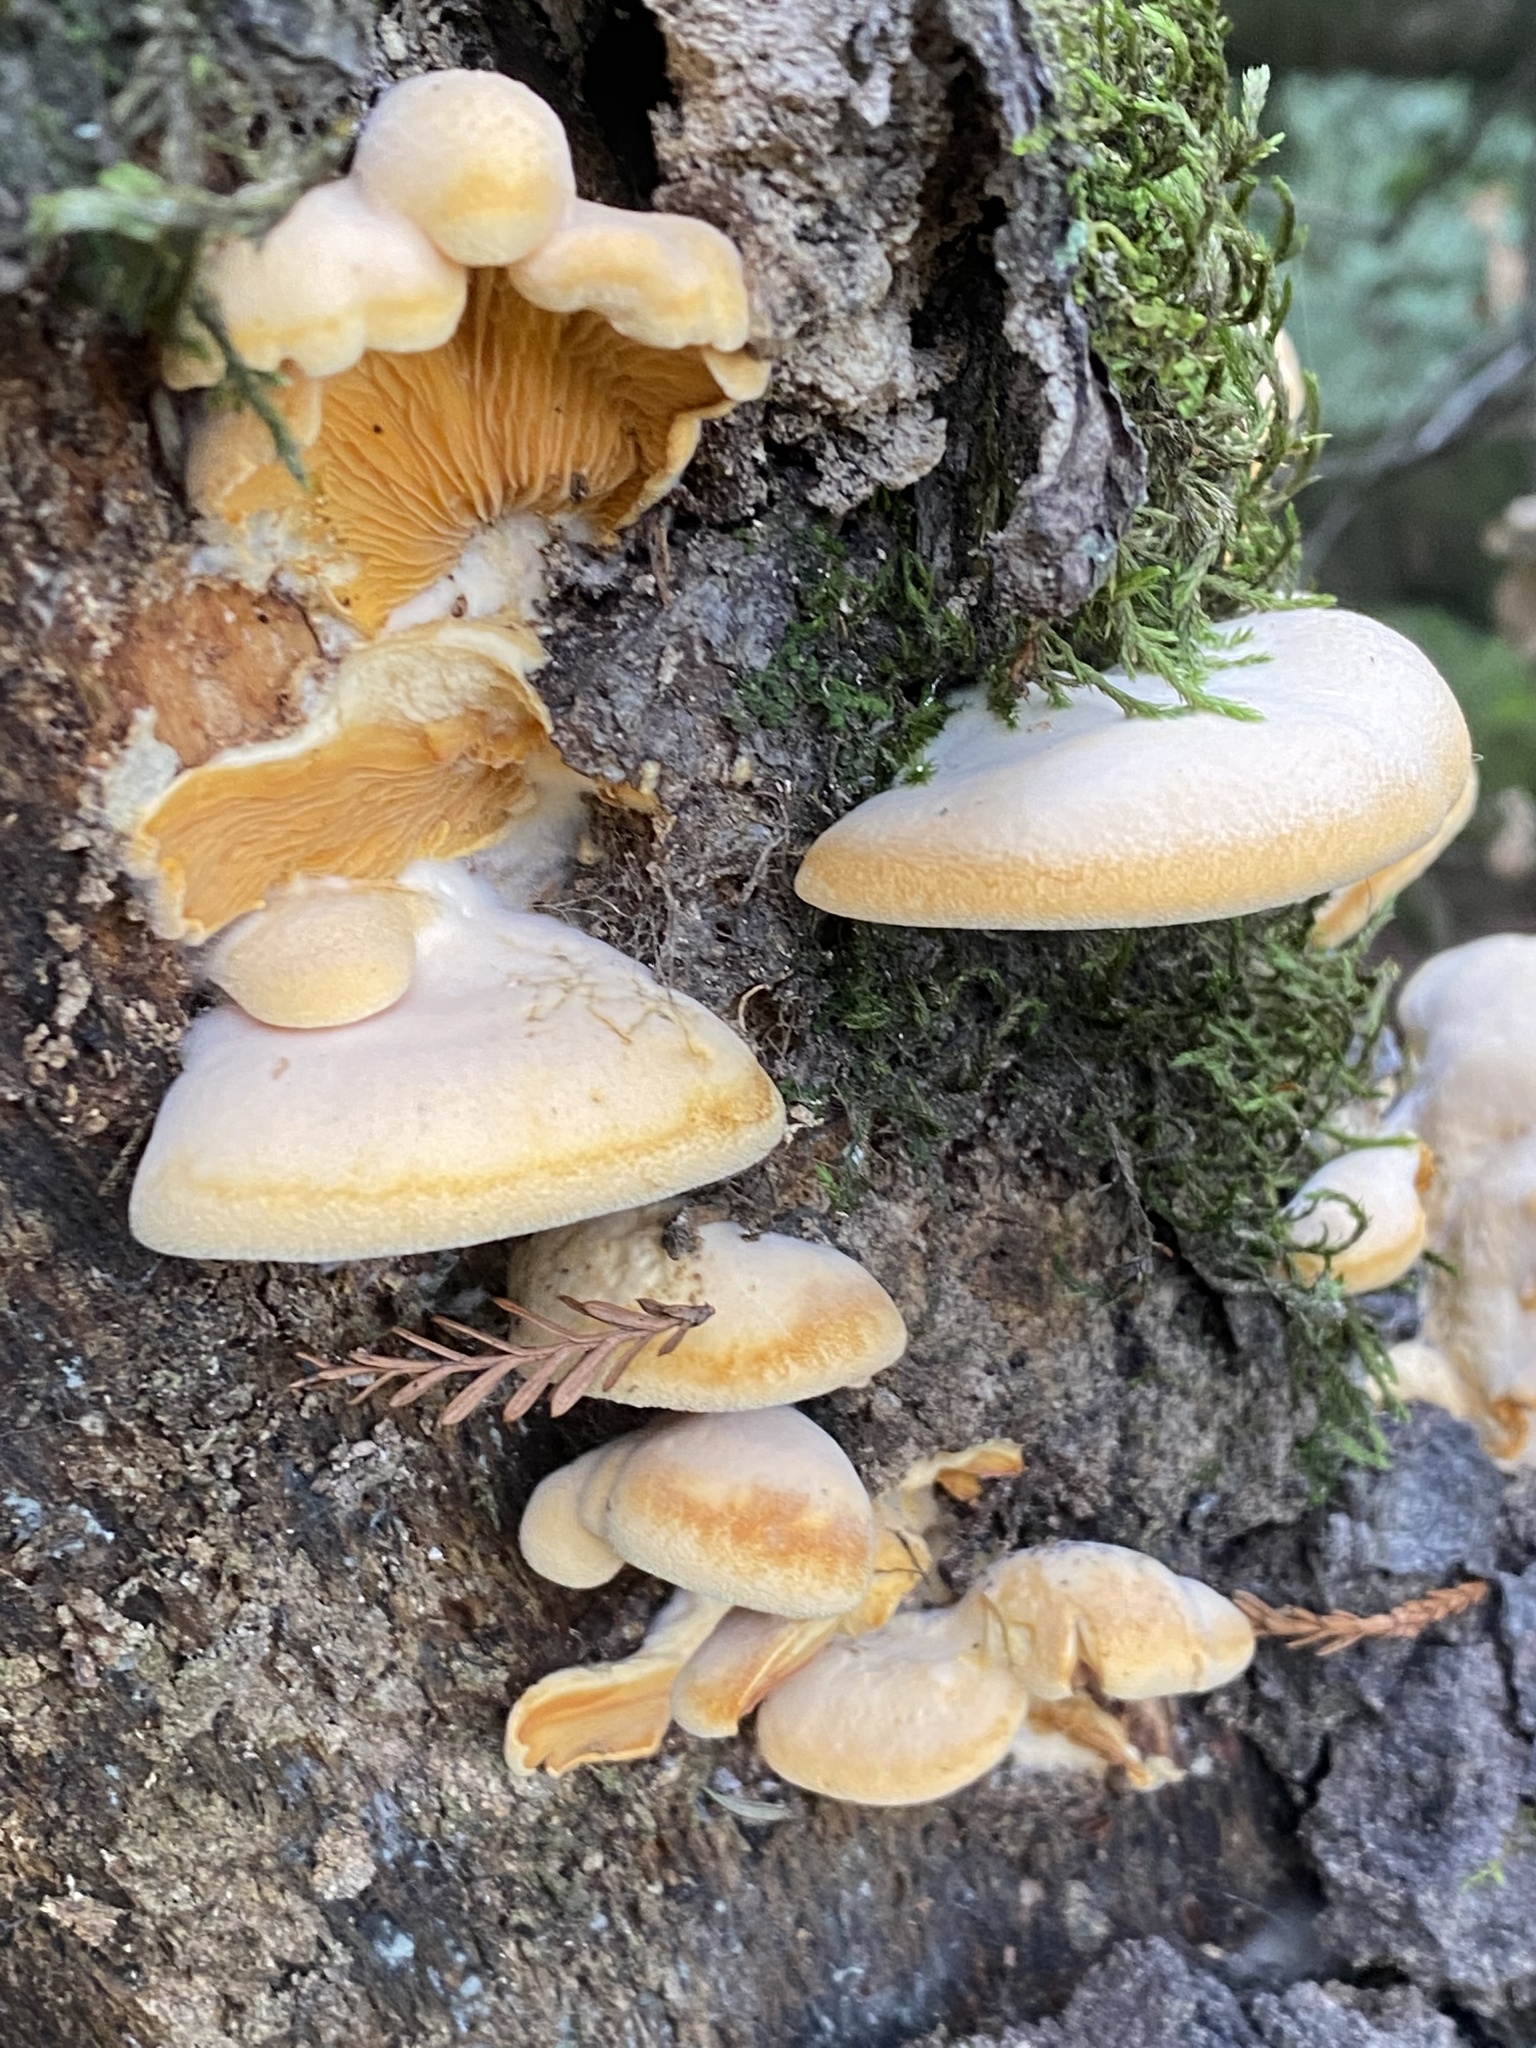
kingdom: Fungi
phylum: Basidiomycota
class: Agaricomycetes
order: Agaricales
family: Phyllotopsidaceae
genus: Phyllotopsis
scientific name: Phyllotopsis nidulans
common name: Orange mock oyster
